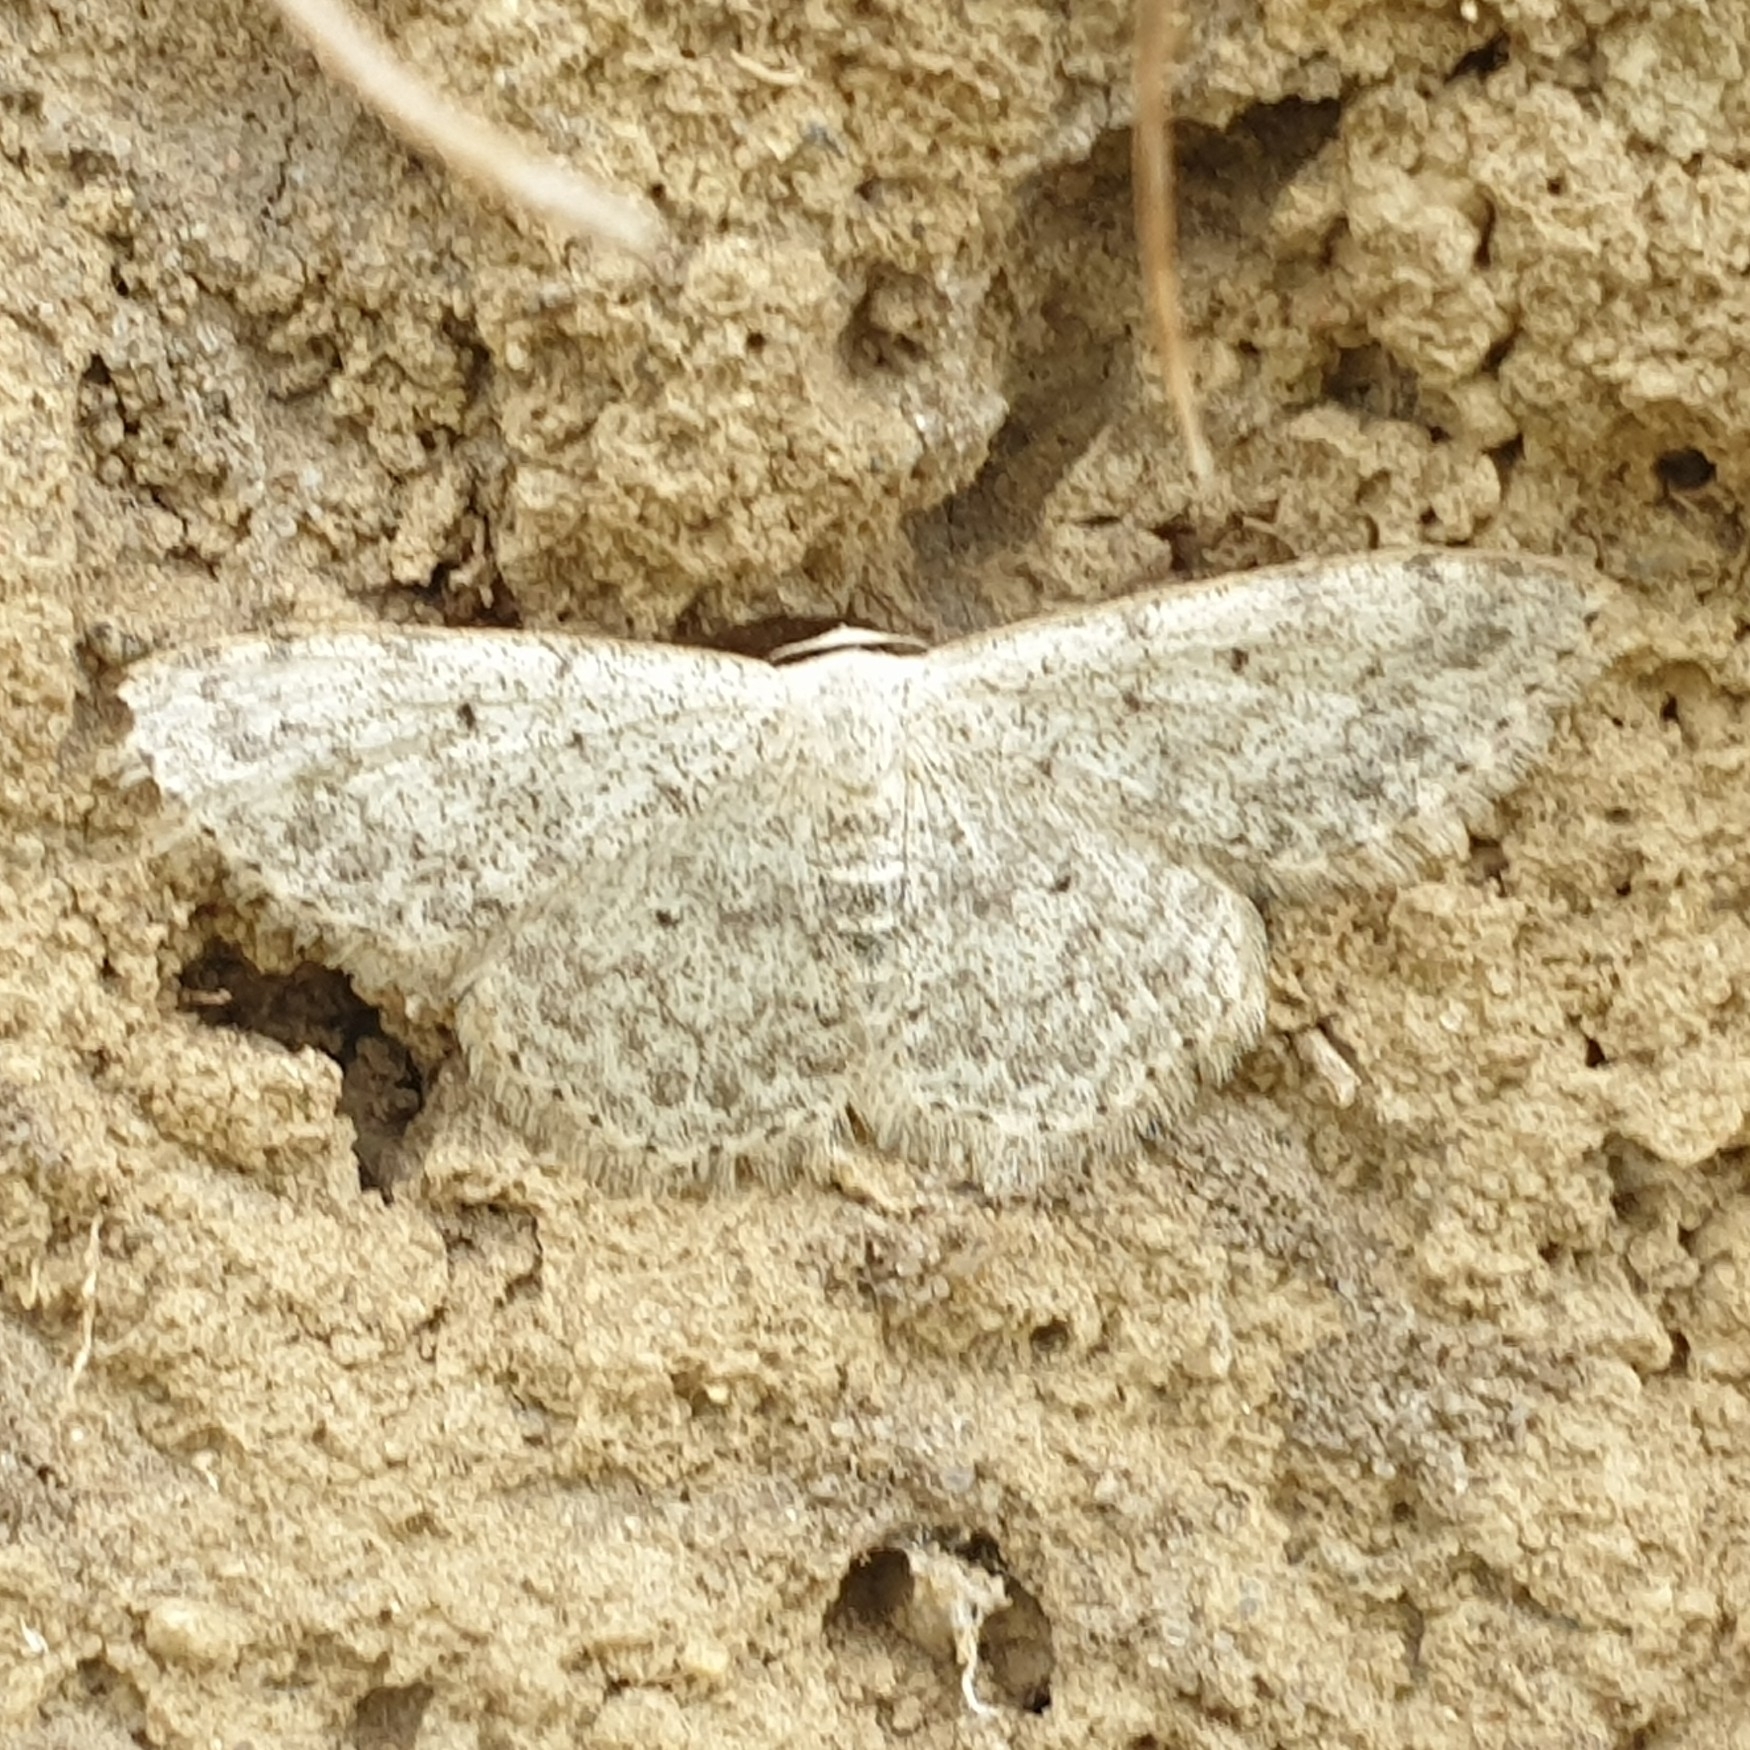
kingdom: Animalia
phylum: Arthropoda
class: Insecta
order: Lepidoptera
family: Geometridae
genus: Scopula
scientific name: Scopula marginepunctata
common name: Mullein wave
